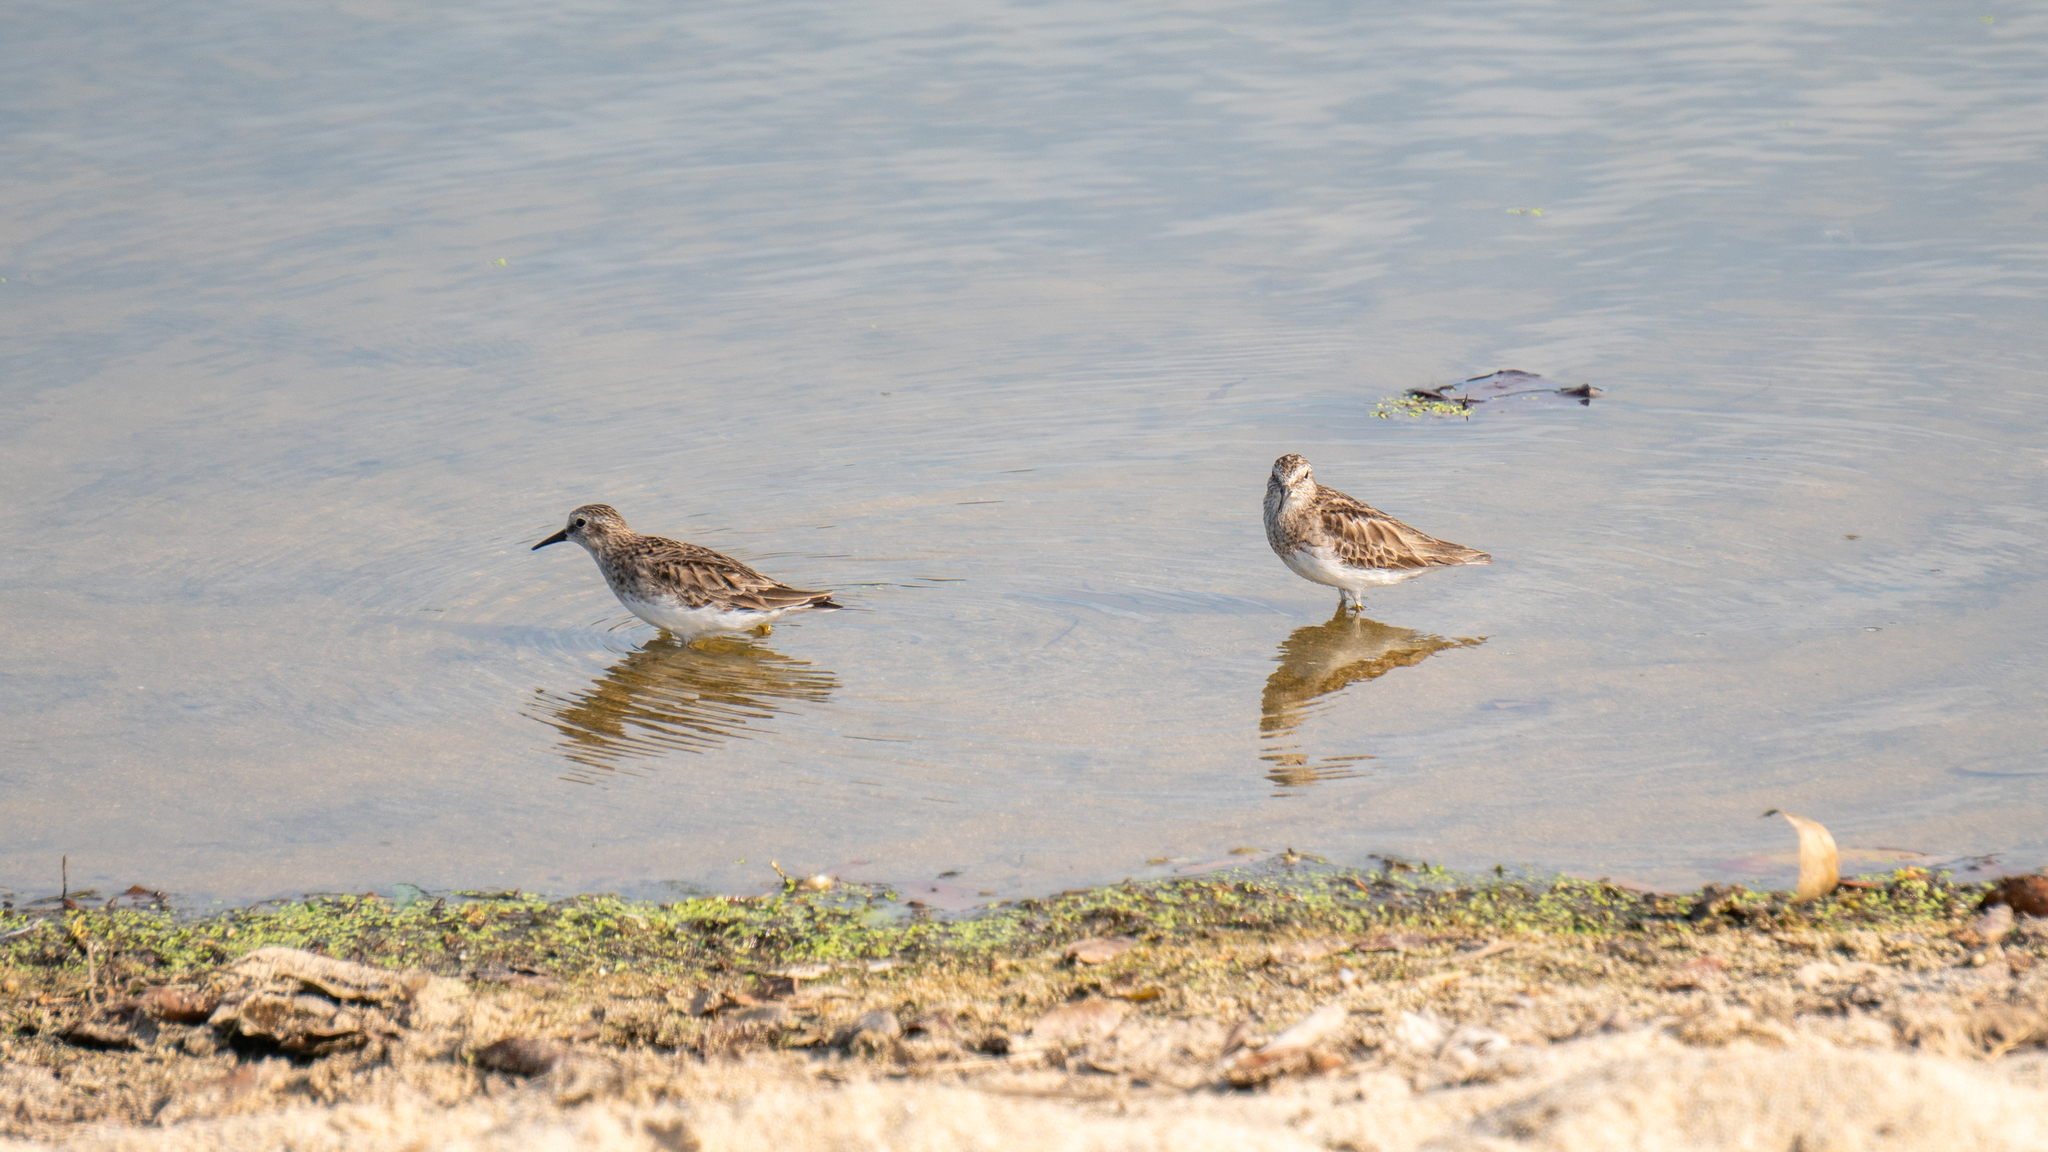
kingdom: Animalia
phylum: Chordata
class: Aves
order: Charadriiformes
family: Scolopacidae
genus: Calidris
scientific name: Calidris minutilla
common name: Least sandpiper
